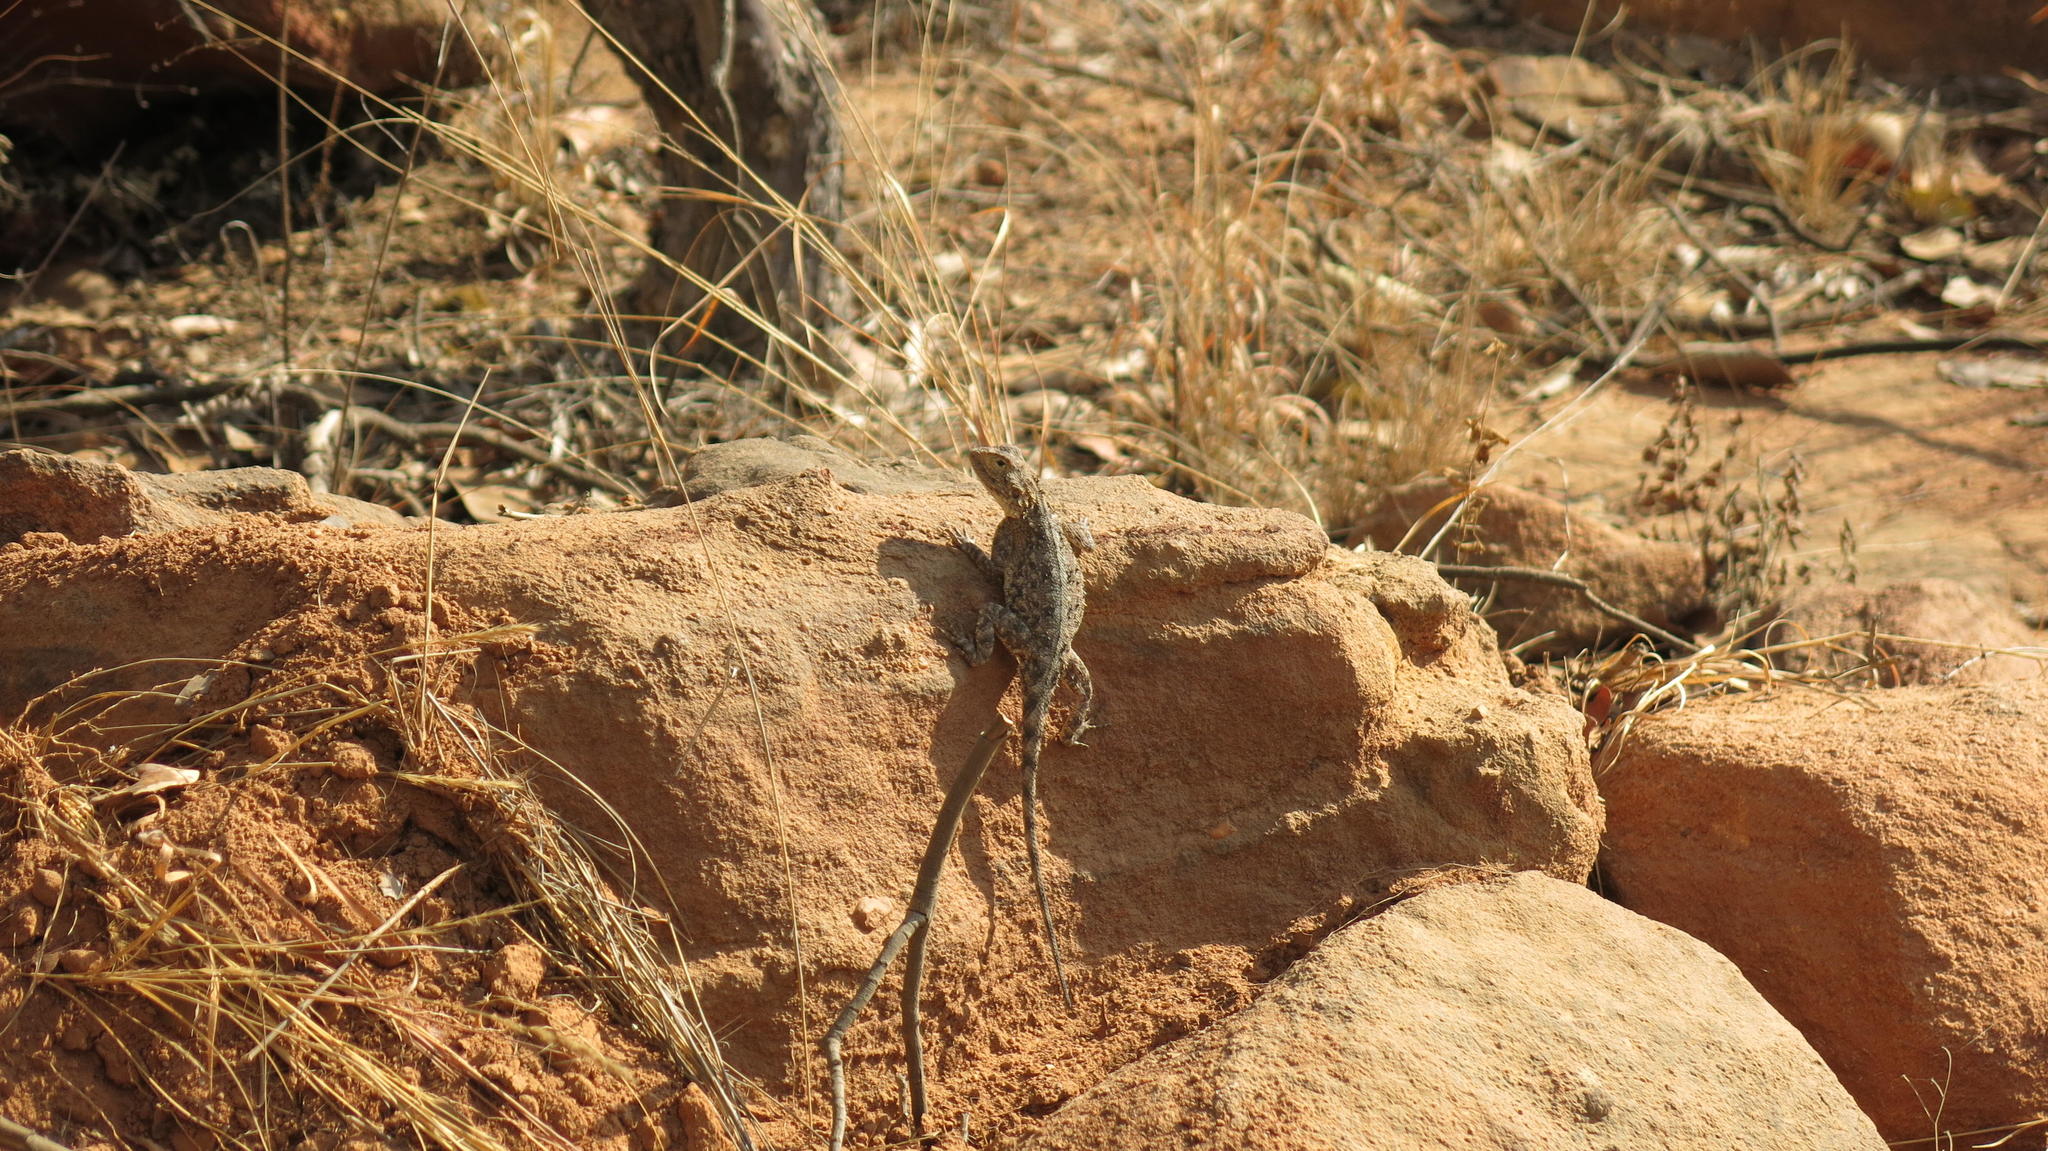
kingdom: Animalia
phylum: Chordata
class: Squamata
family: Agamidae
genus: Agama
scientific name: Agama aculeata
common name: Common ground agama
